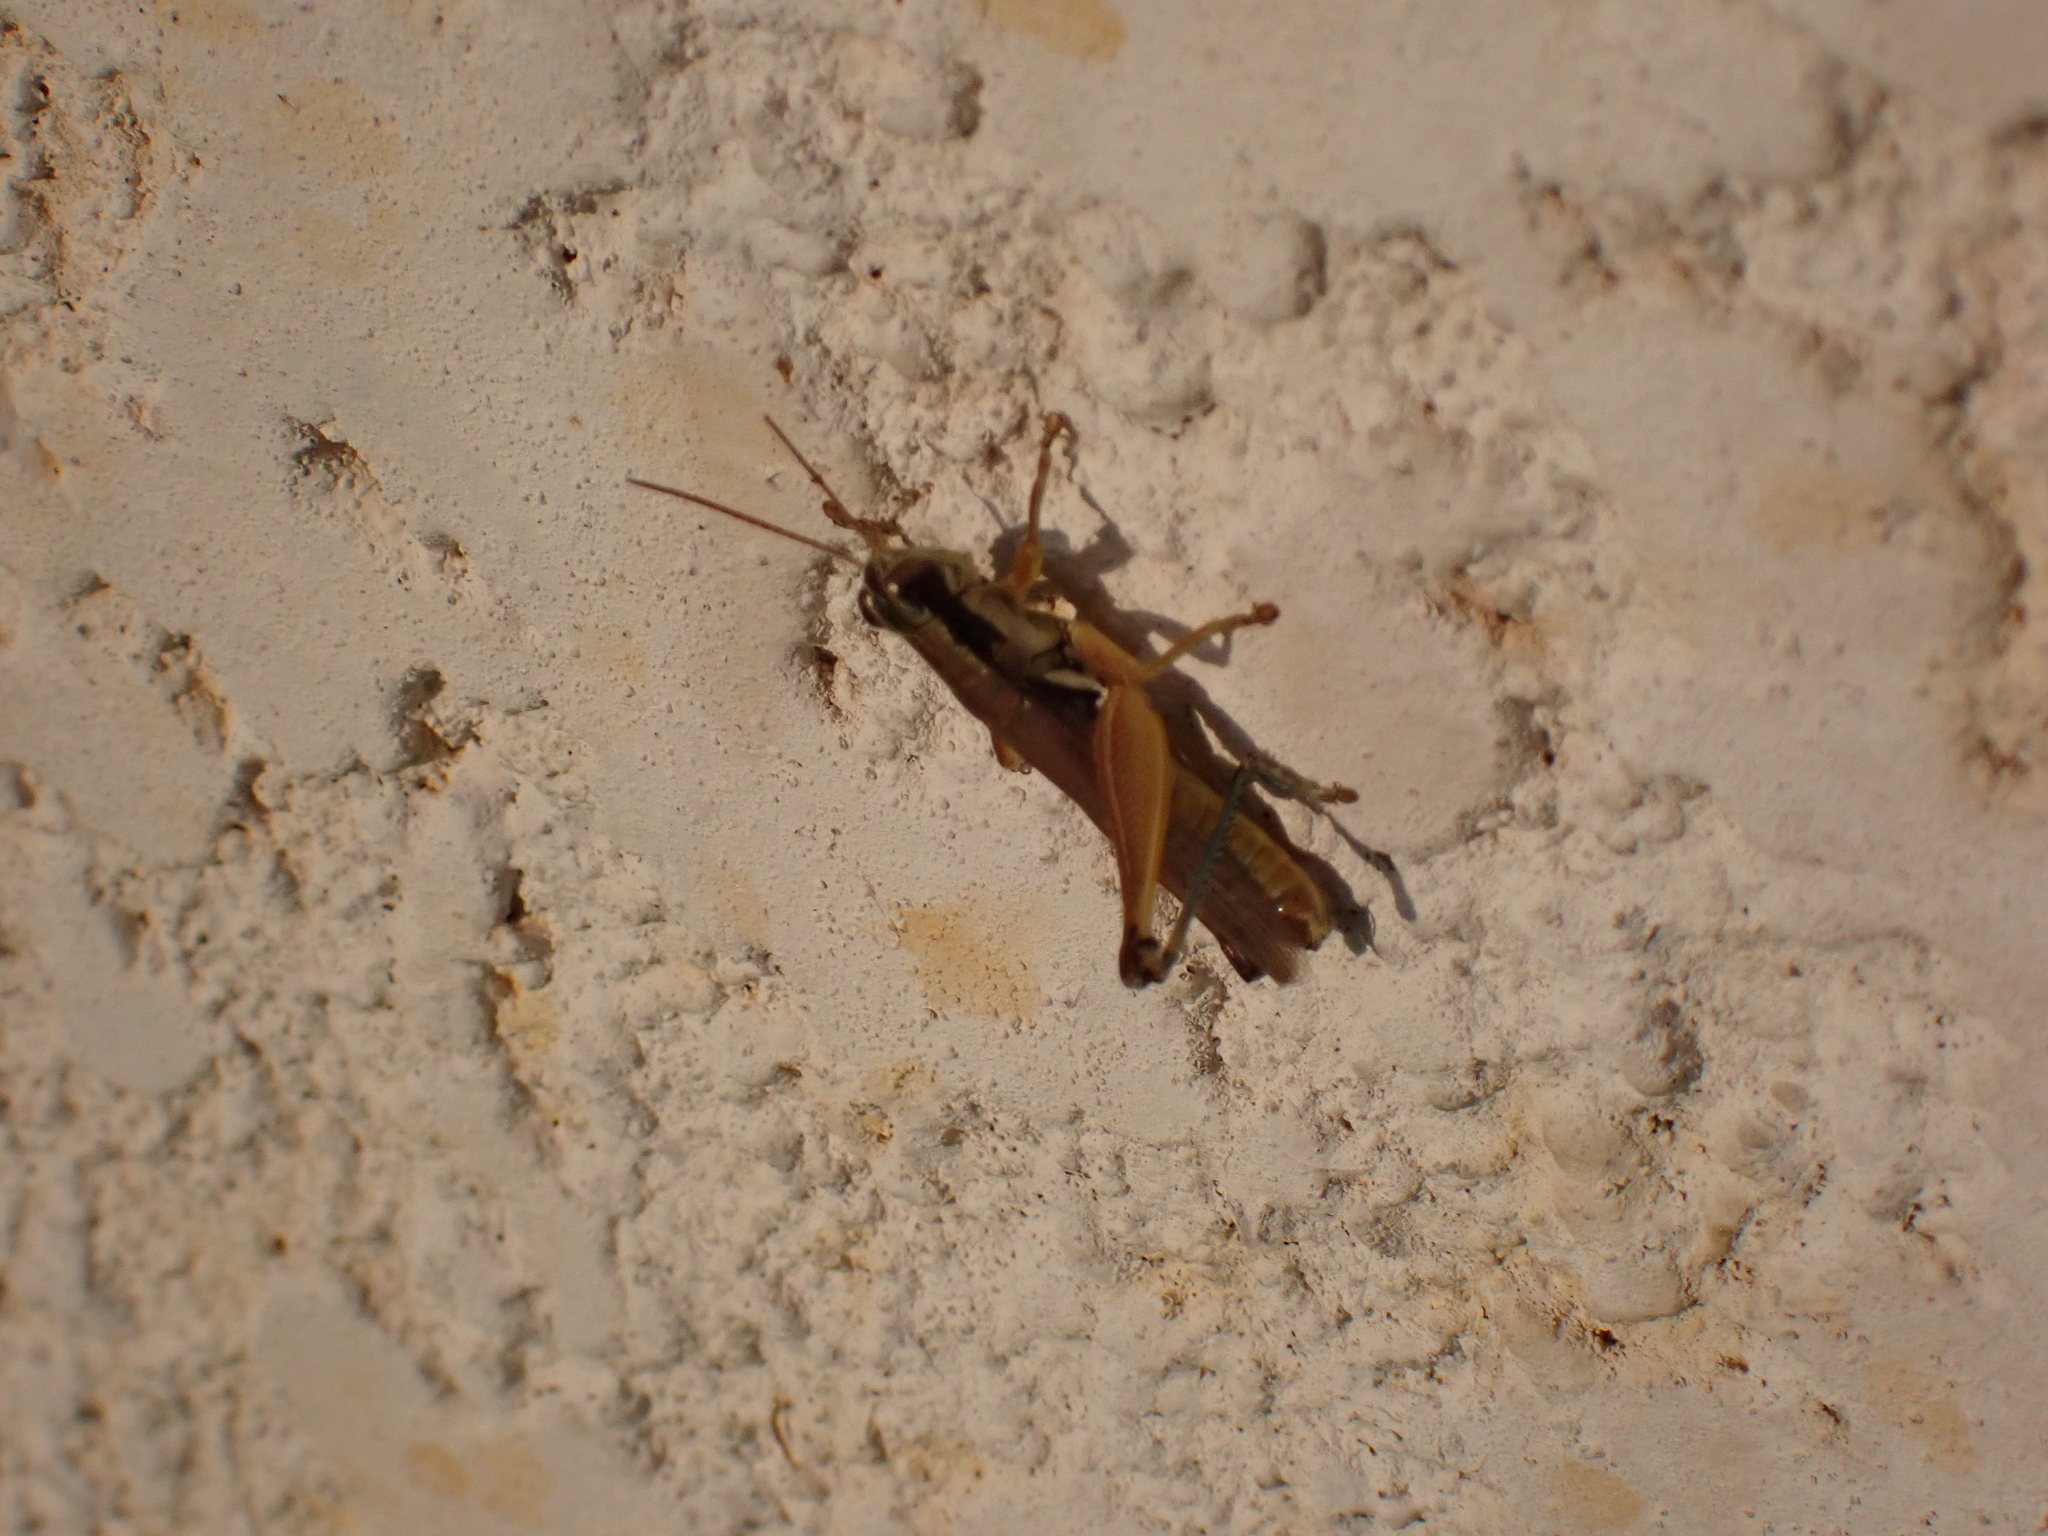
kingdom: Animalia
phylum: Arthropoda
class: Insecta
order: Orthoptera
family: Acrididae
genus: Paroxya
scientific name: Paroxya atlantica
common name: Atlantic grasshopper
